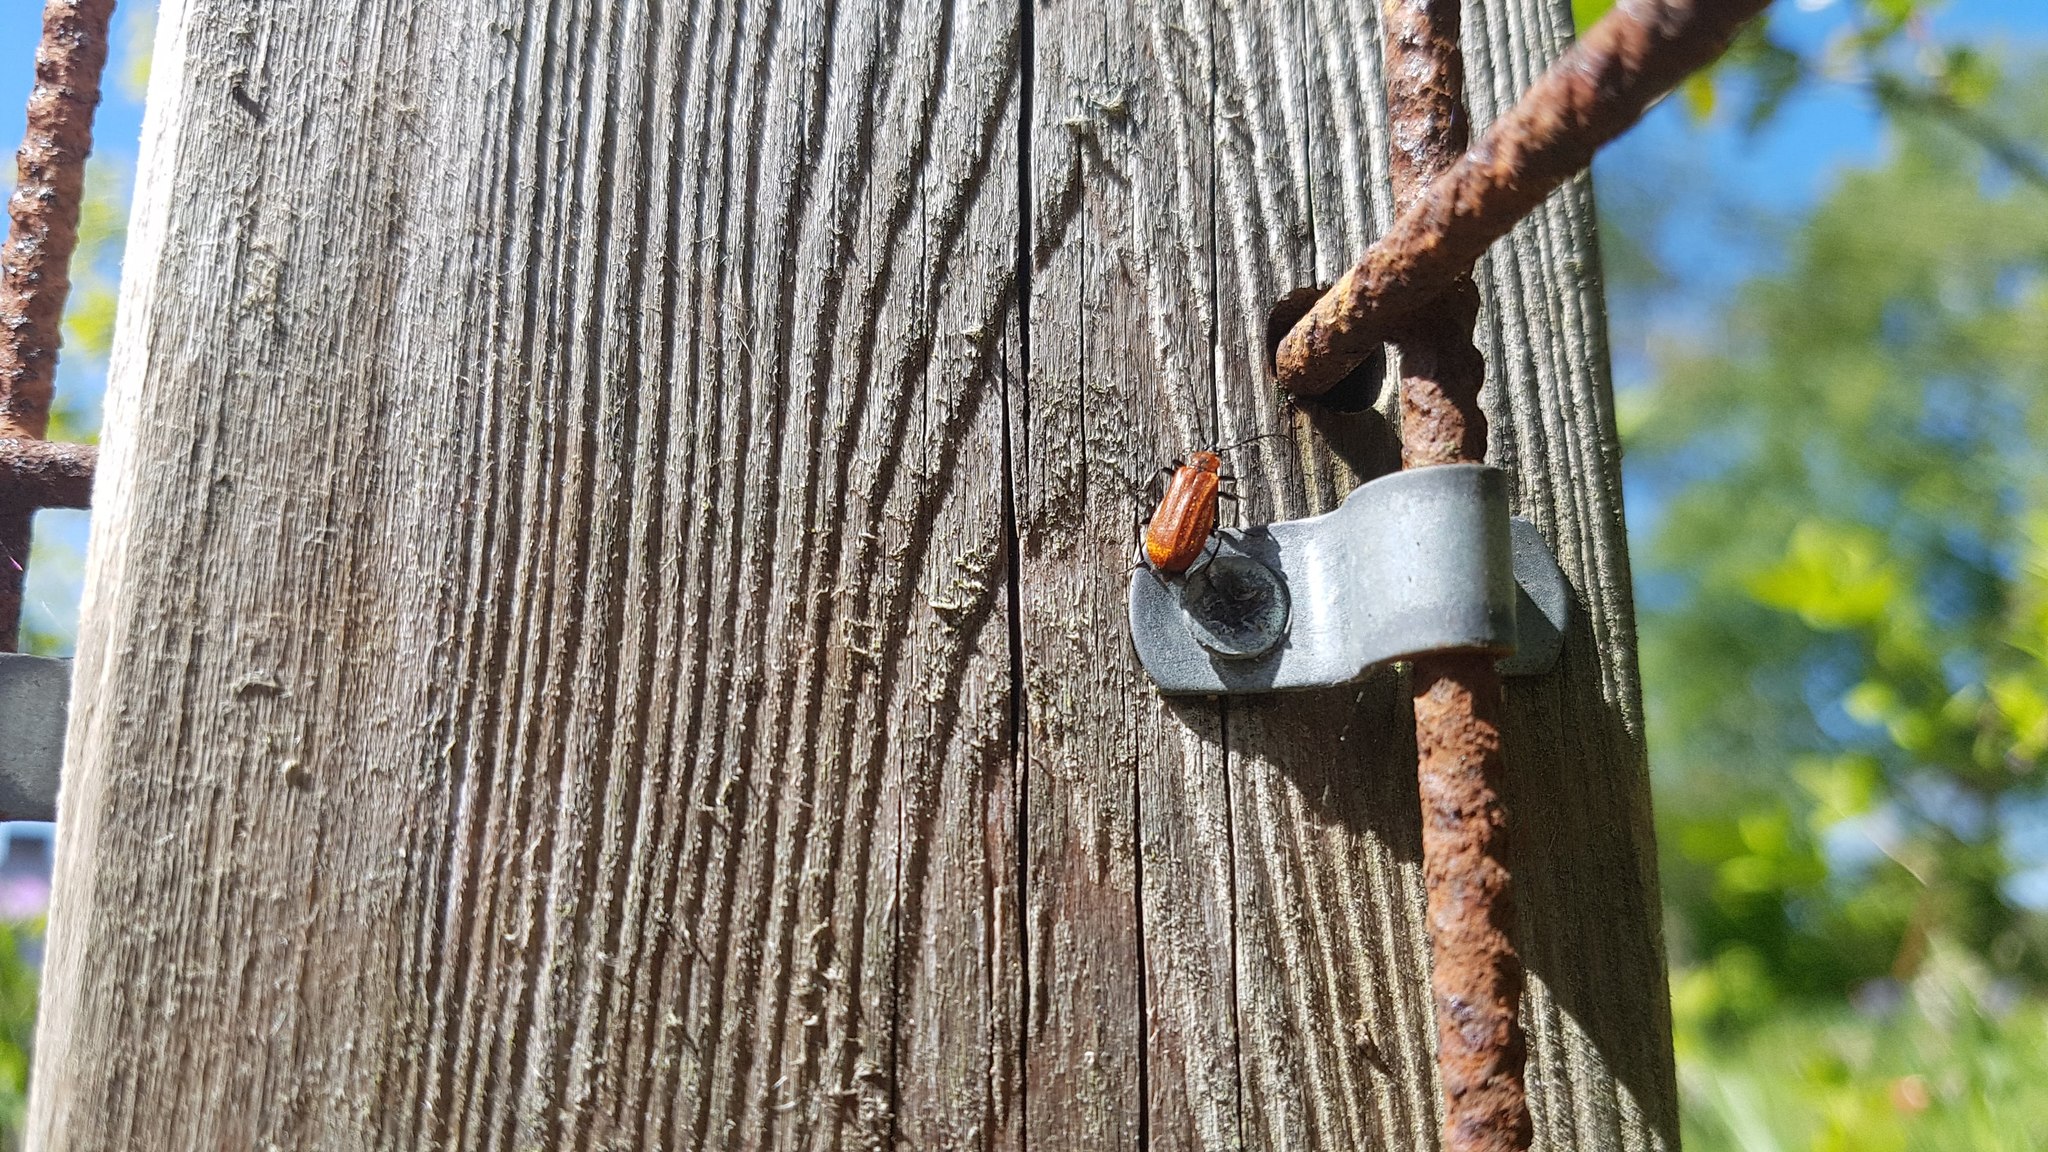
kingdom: Animalia
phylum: Arthropoda
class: Insecta
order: Coleoptera
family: Pyrochroidae
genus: Schizotus
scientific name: Schizotus pectinicornis
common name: Scarce cardinal beetle
